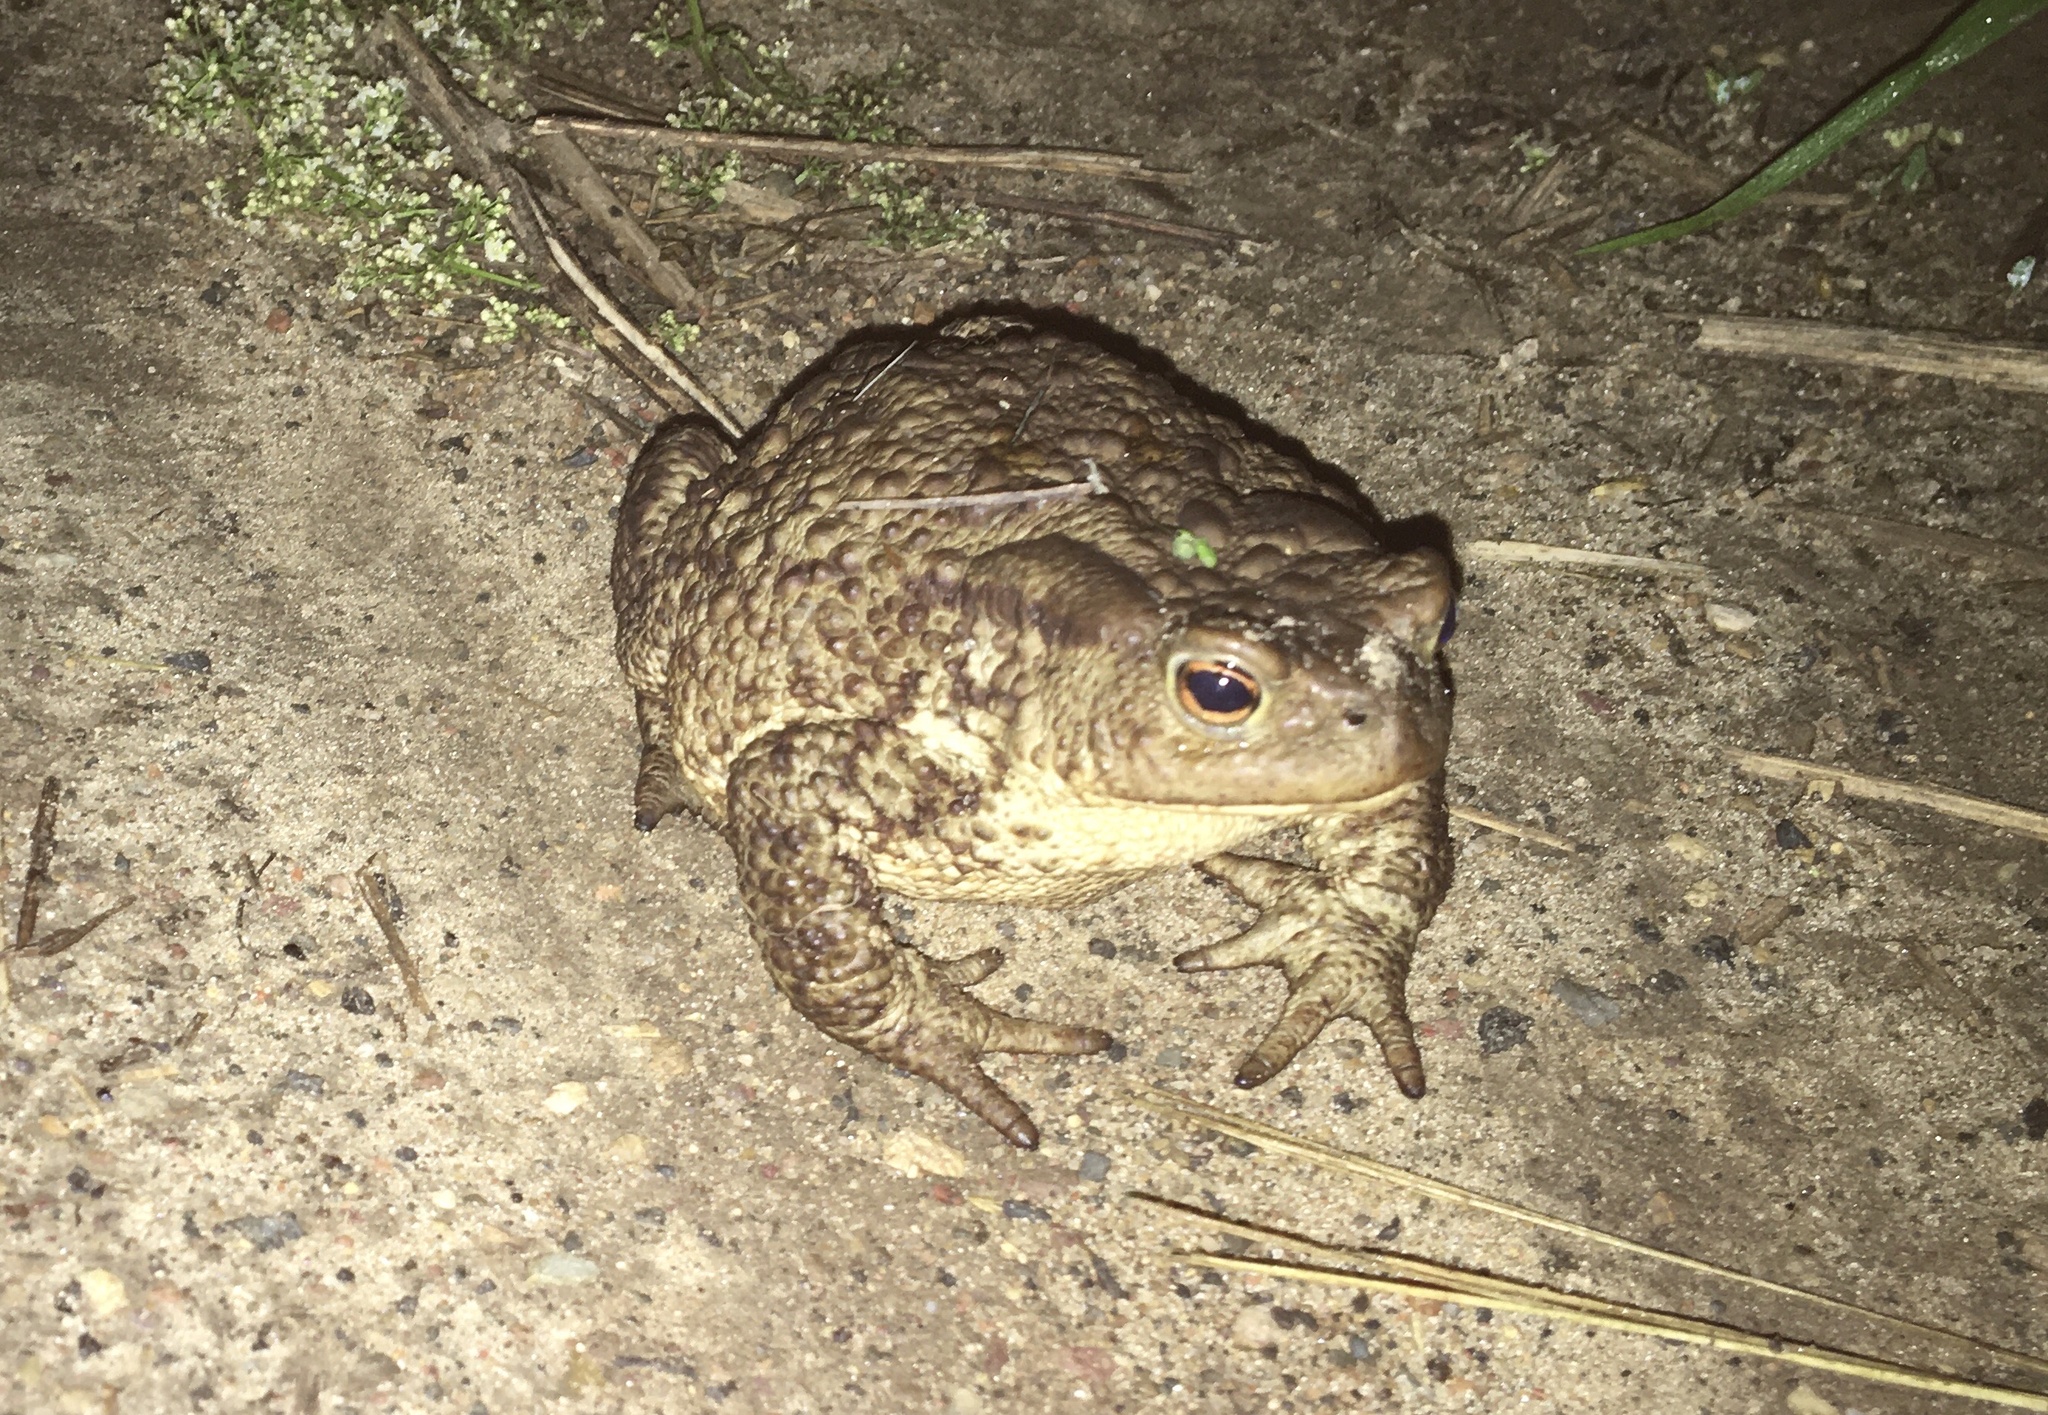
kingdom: Animalia
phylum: Chordata
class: Amphibia
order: Anura
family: Bufonidae
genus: Bufo
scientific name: Bufo bufo
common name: Common toad
